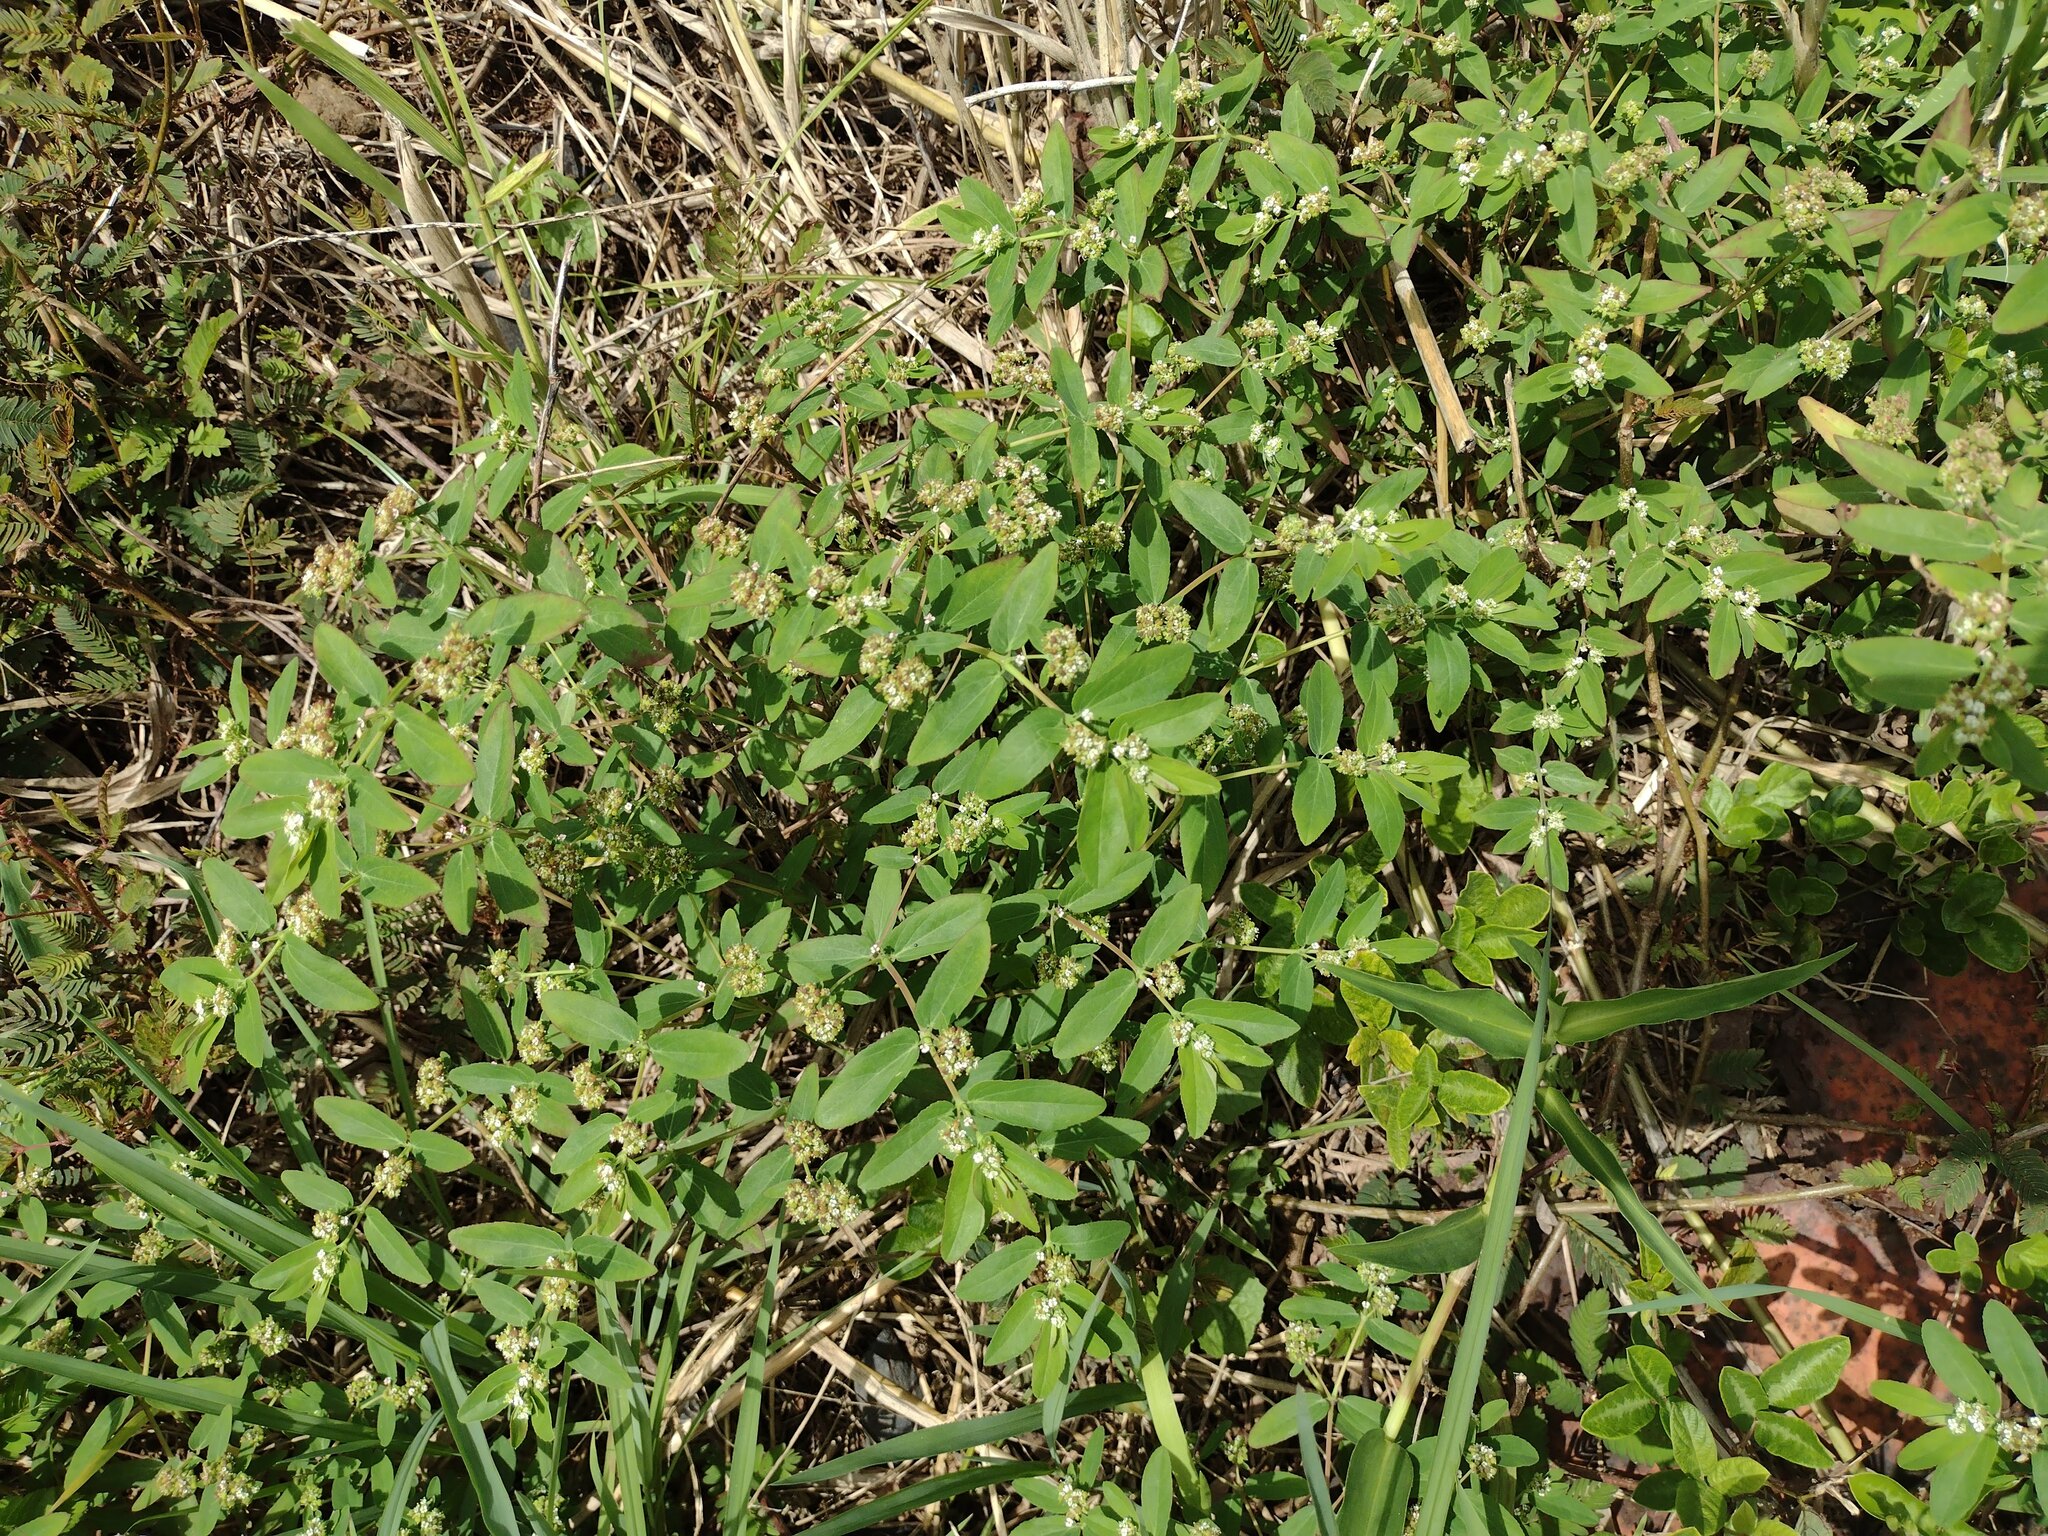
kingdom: Plantae
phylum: Tracheophyta
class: Magnoliopsida
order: Malpighiales
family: Euphorbiaceae
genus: Euphorbia
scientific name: Euphorbia hypericifolia
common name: Graceful sandmat
